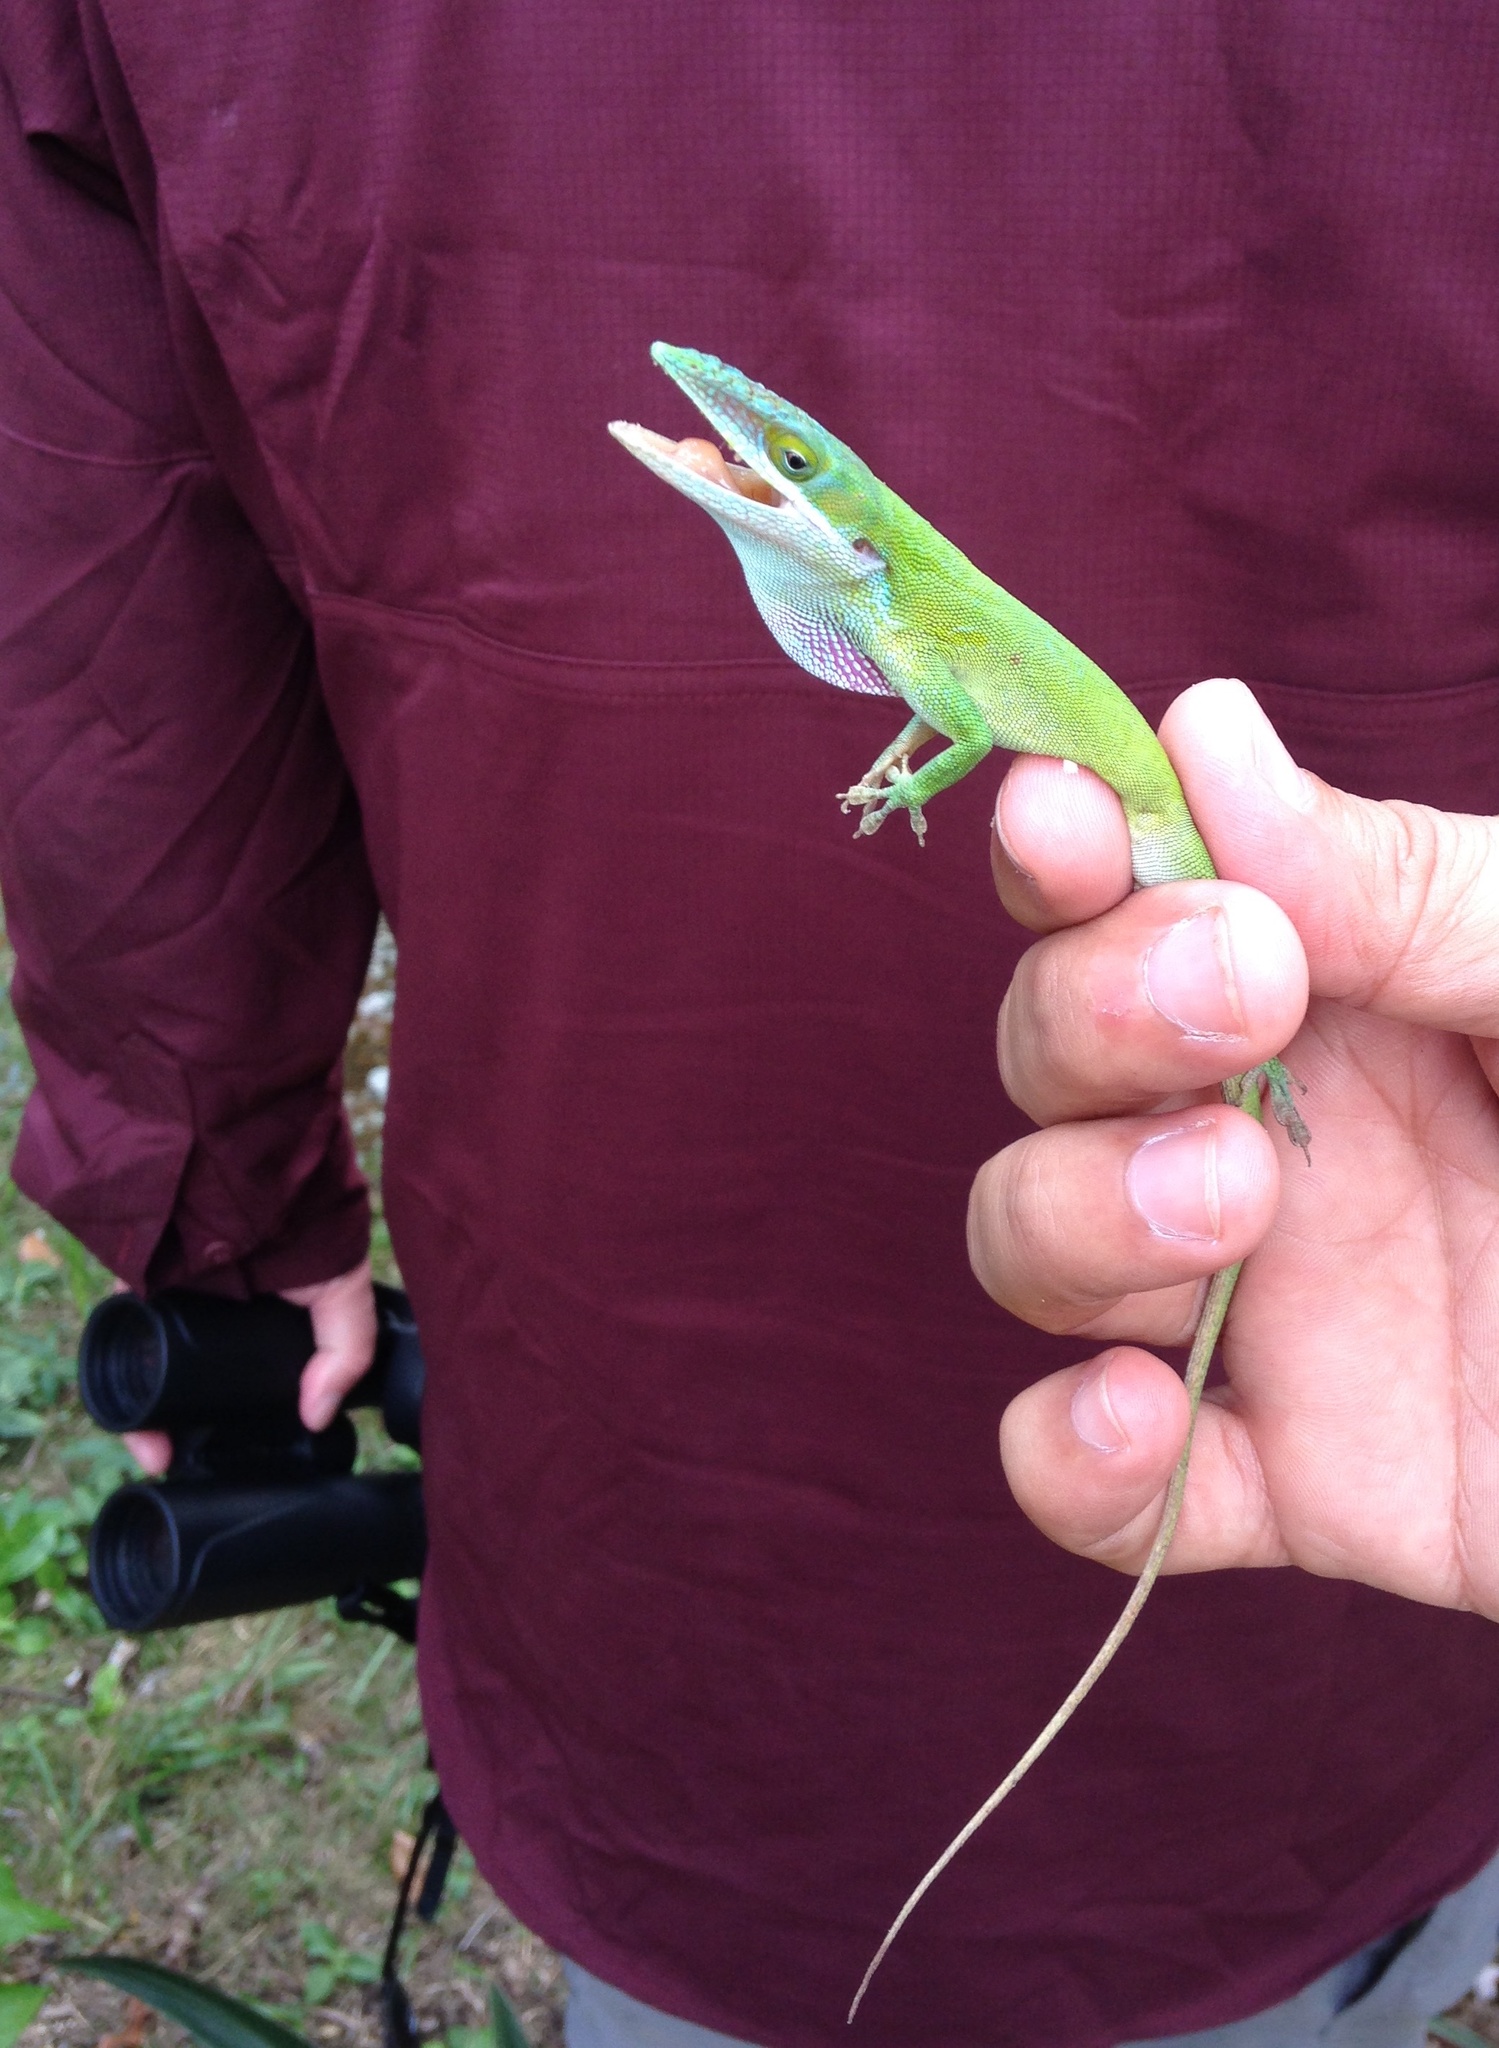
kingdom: Animalia
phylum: Chordata
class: Squamata
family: Dactyloidae
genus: Anolis
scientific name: Anolis allisoni
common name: Allison's anole
